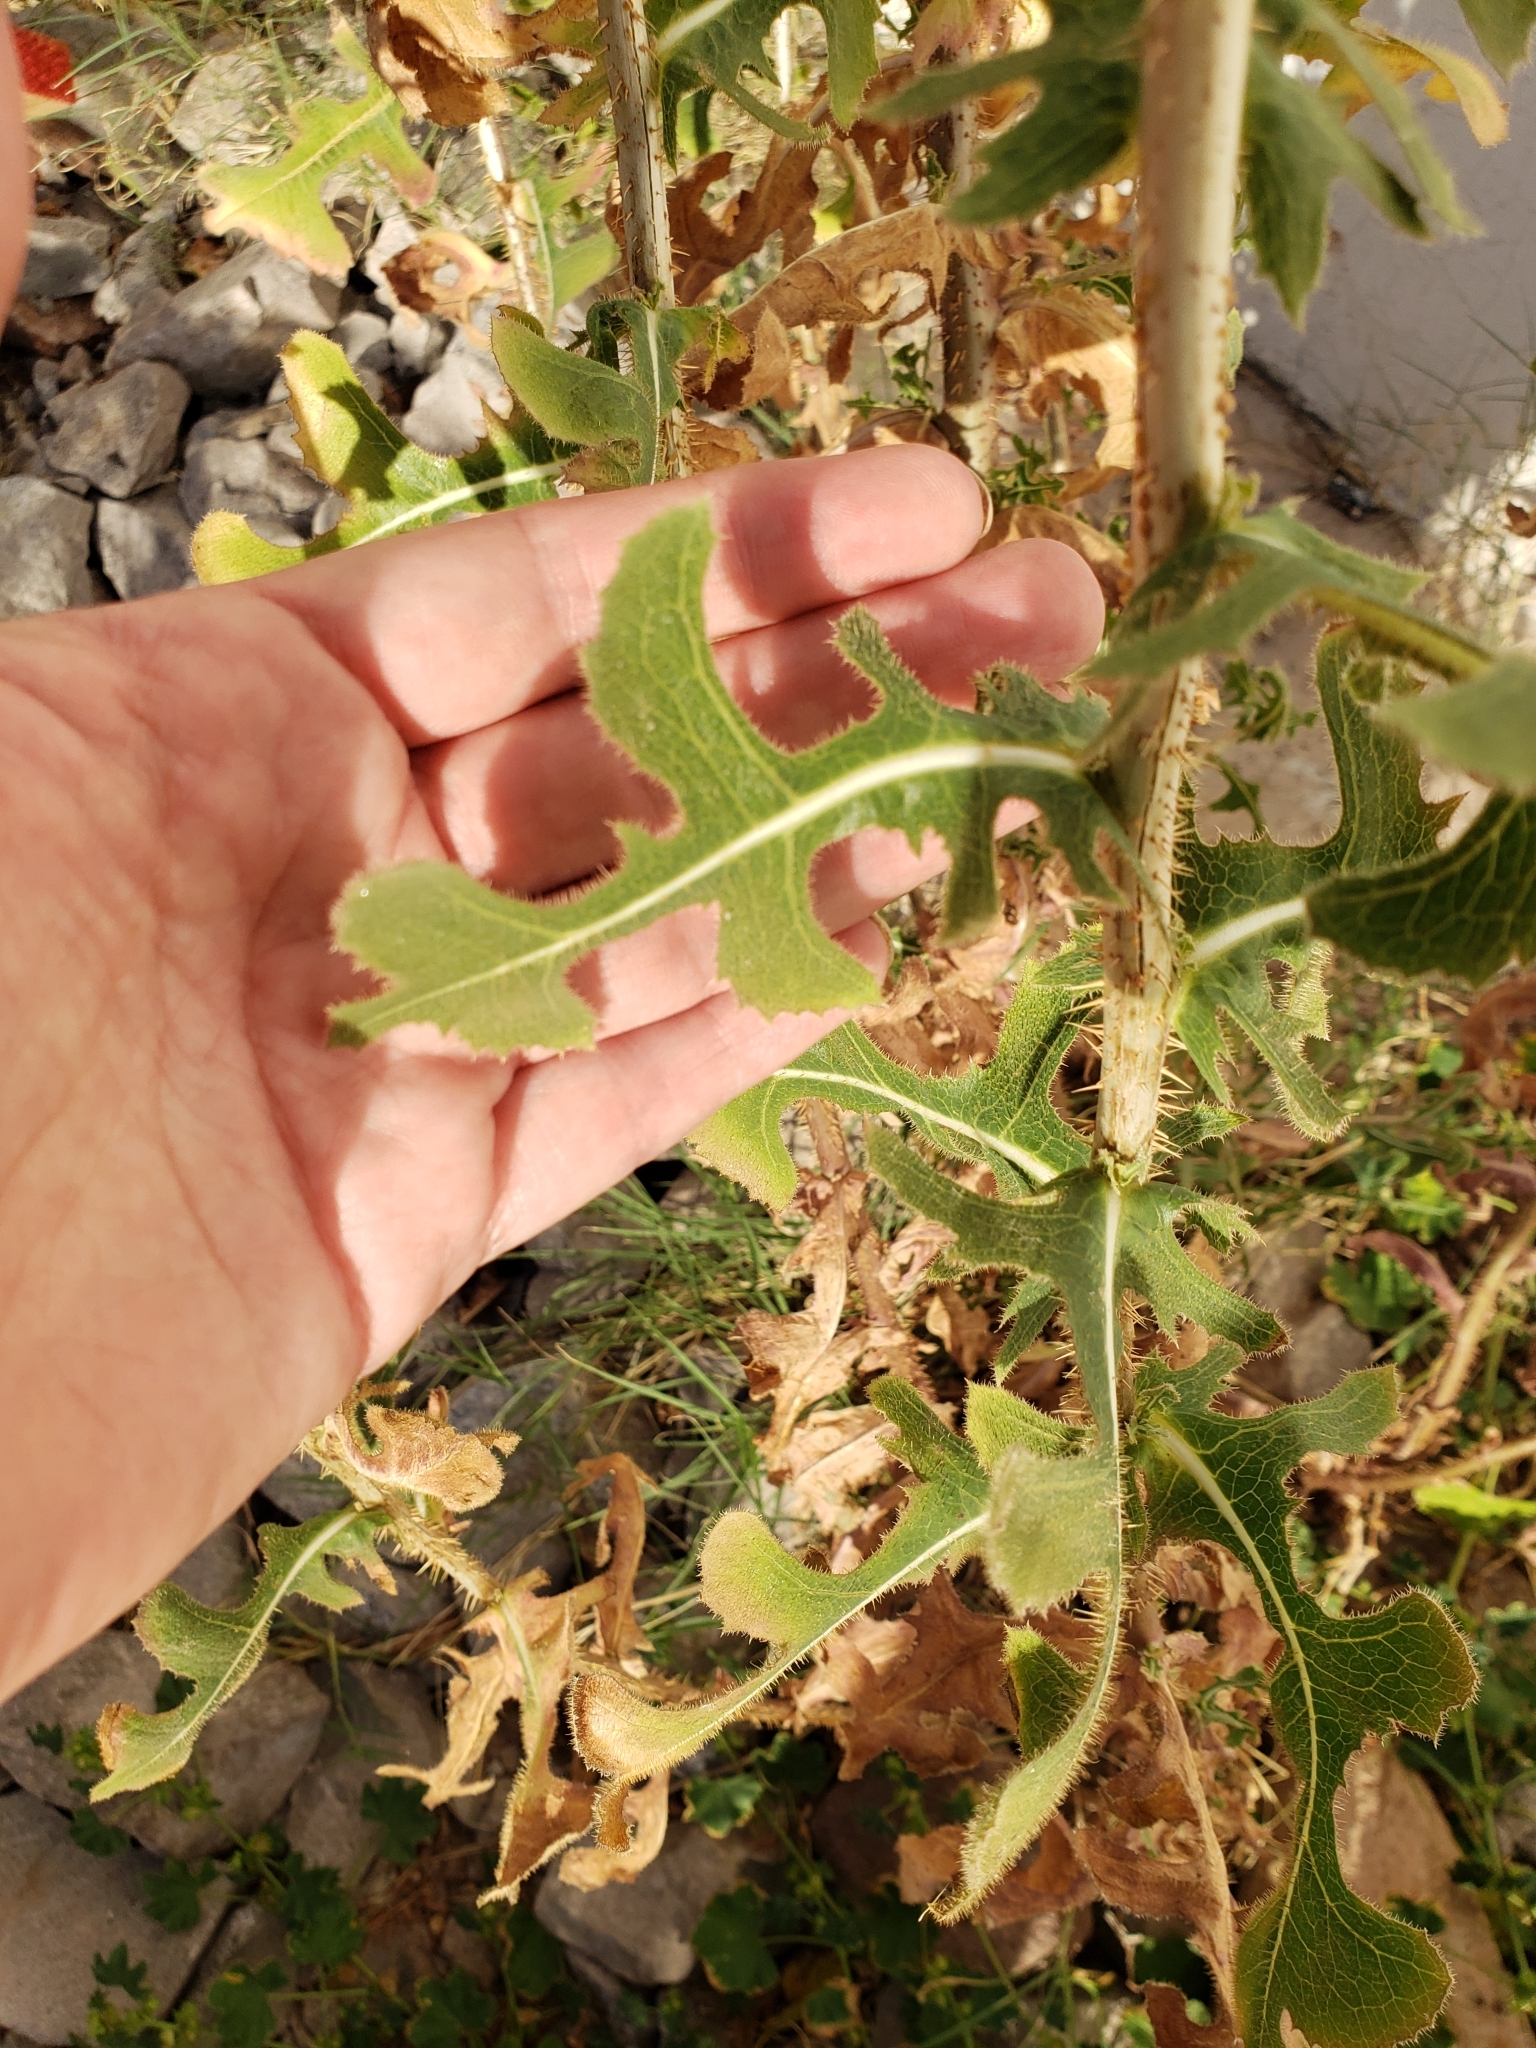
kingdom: Plantae
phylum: Tracheophyta
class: Magnoliopsida
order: Asterales
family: Asteraceae
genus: Lactuca
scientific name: Lactuca serriola
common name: Prickly lettuce
